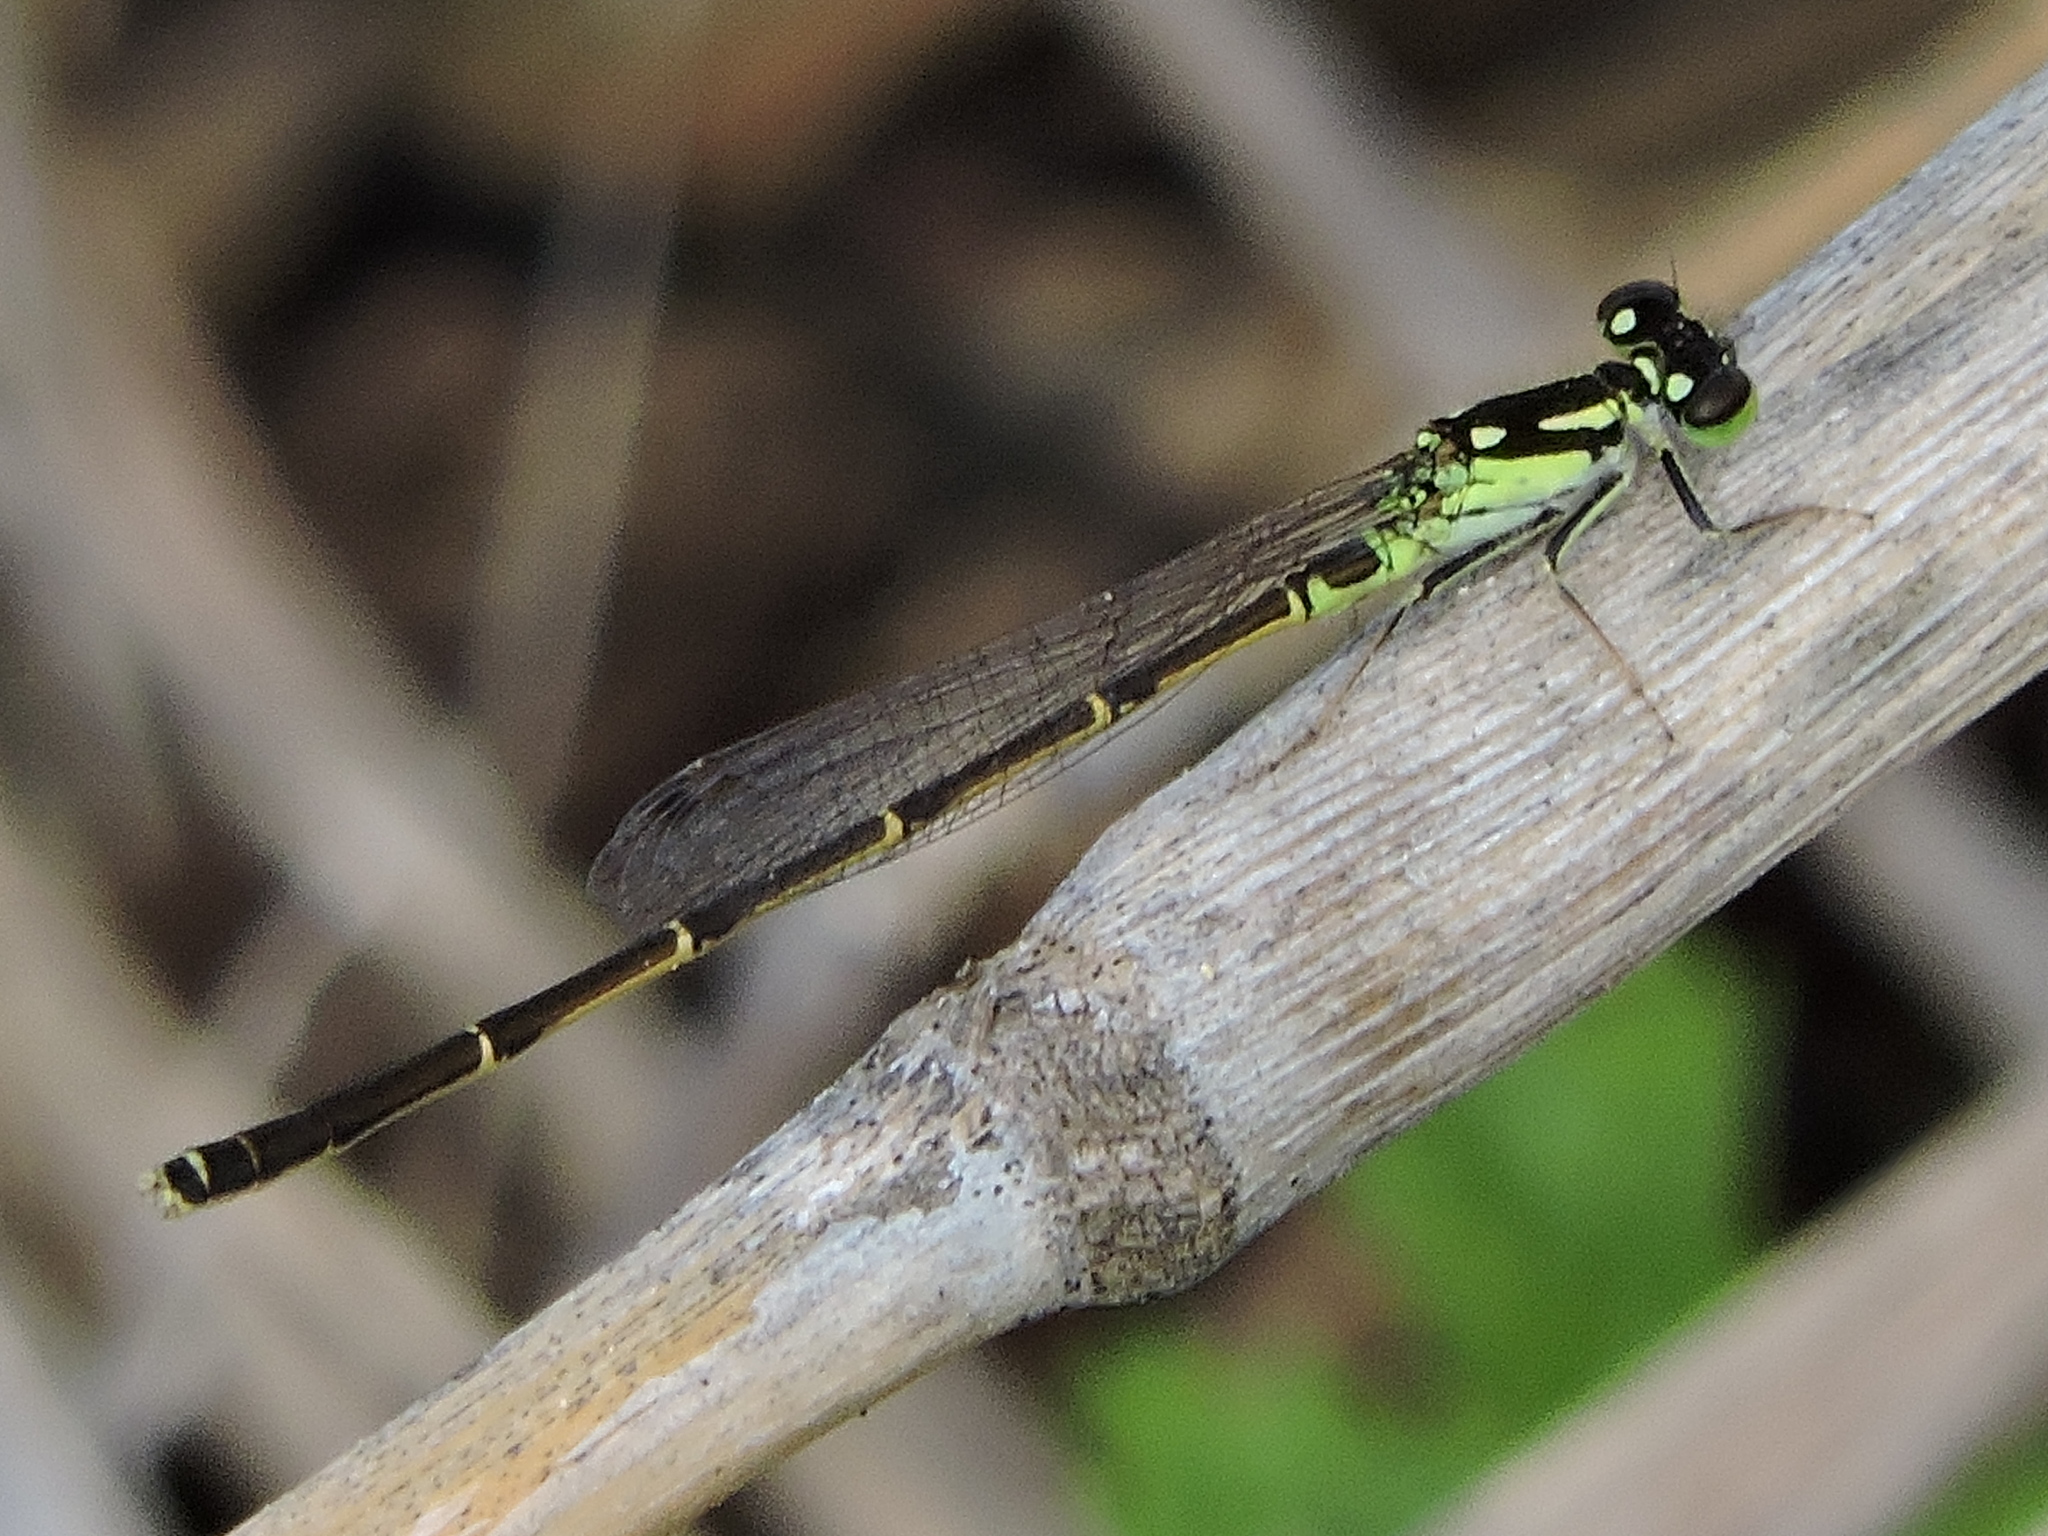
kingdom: Animalia
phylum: Arthropoda
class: Insecta
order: Odonata
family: Coenagrionidae
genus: Ischnura
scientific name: Ischnura posita
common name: Fragile forktail
